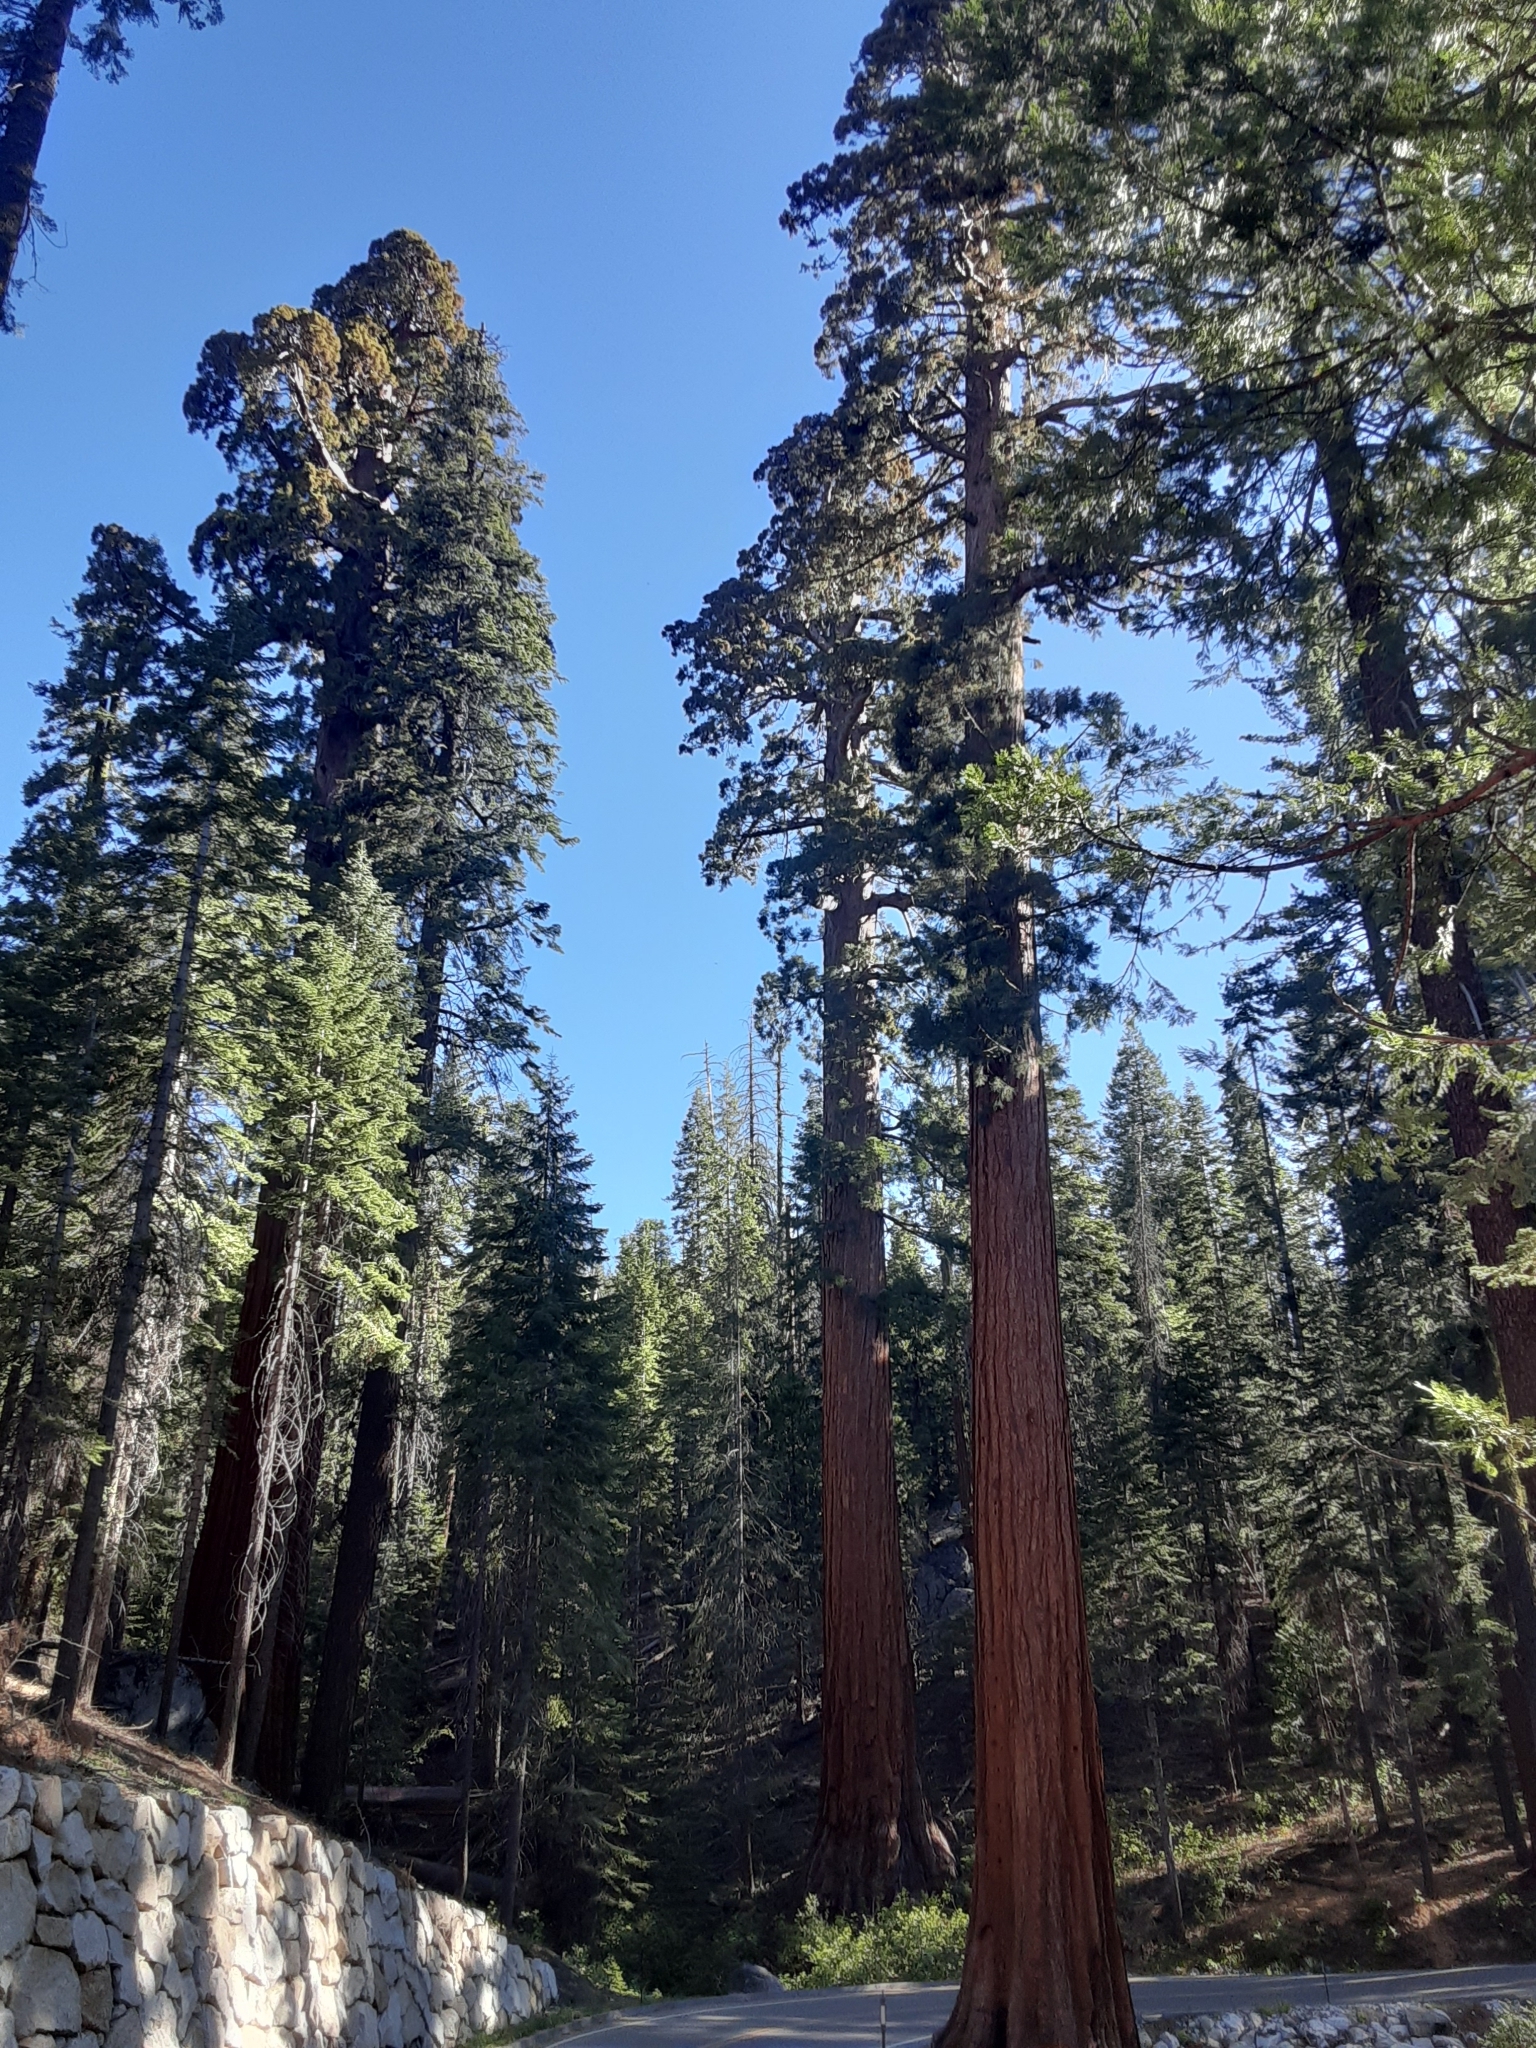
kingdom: Plantae
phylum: Tracheophyta
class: Pinopsida
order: Pinales
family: Cupressaceae
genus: Sequoiadendron
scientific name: Sequoiadendron giganteum
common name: Wellingtonia
